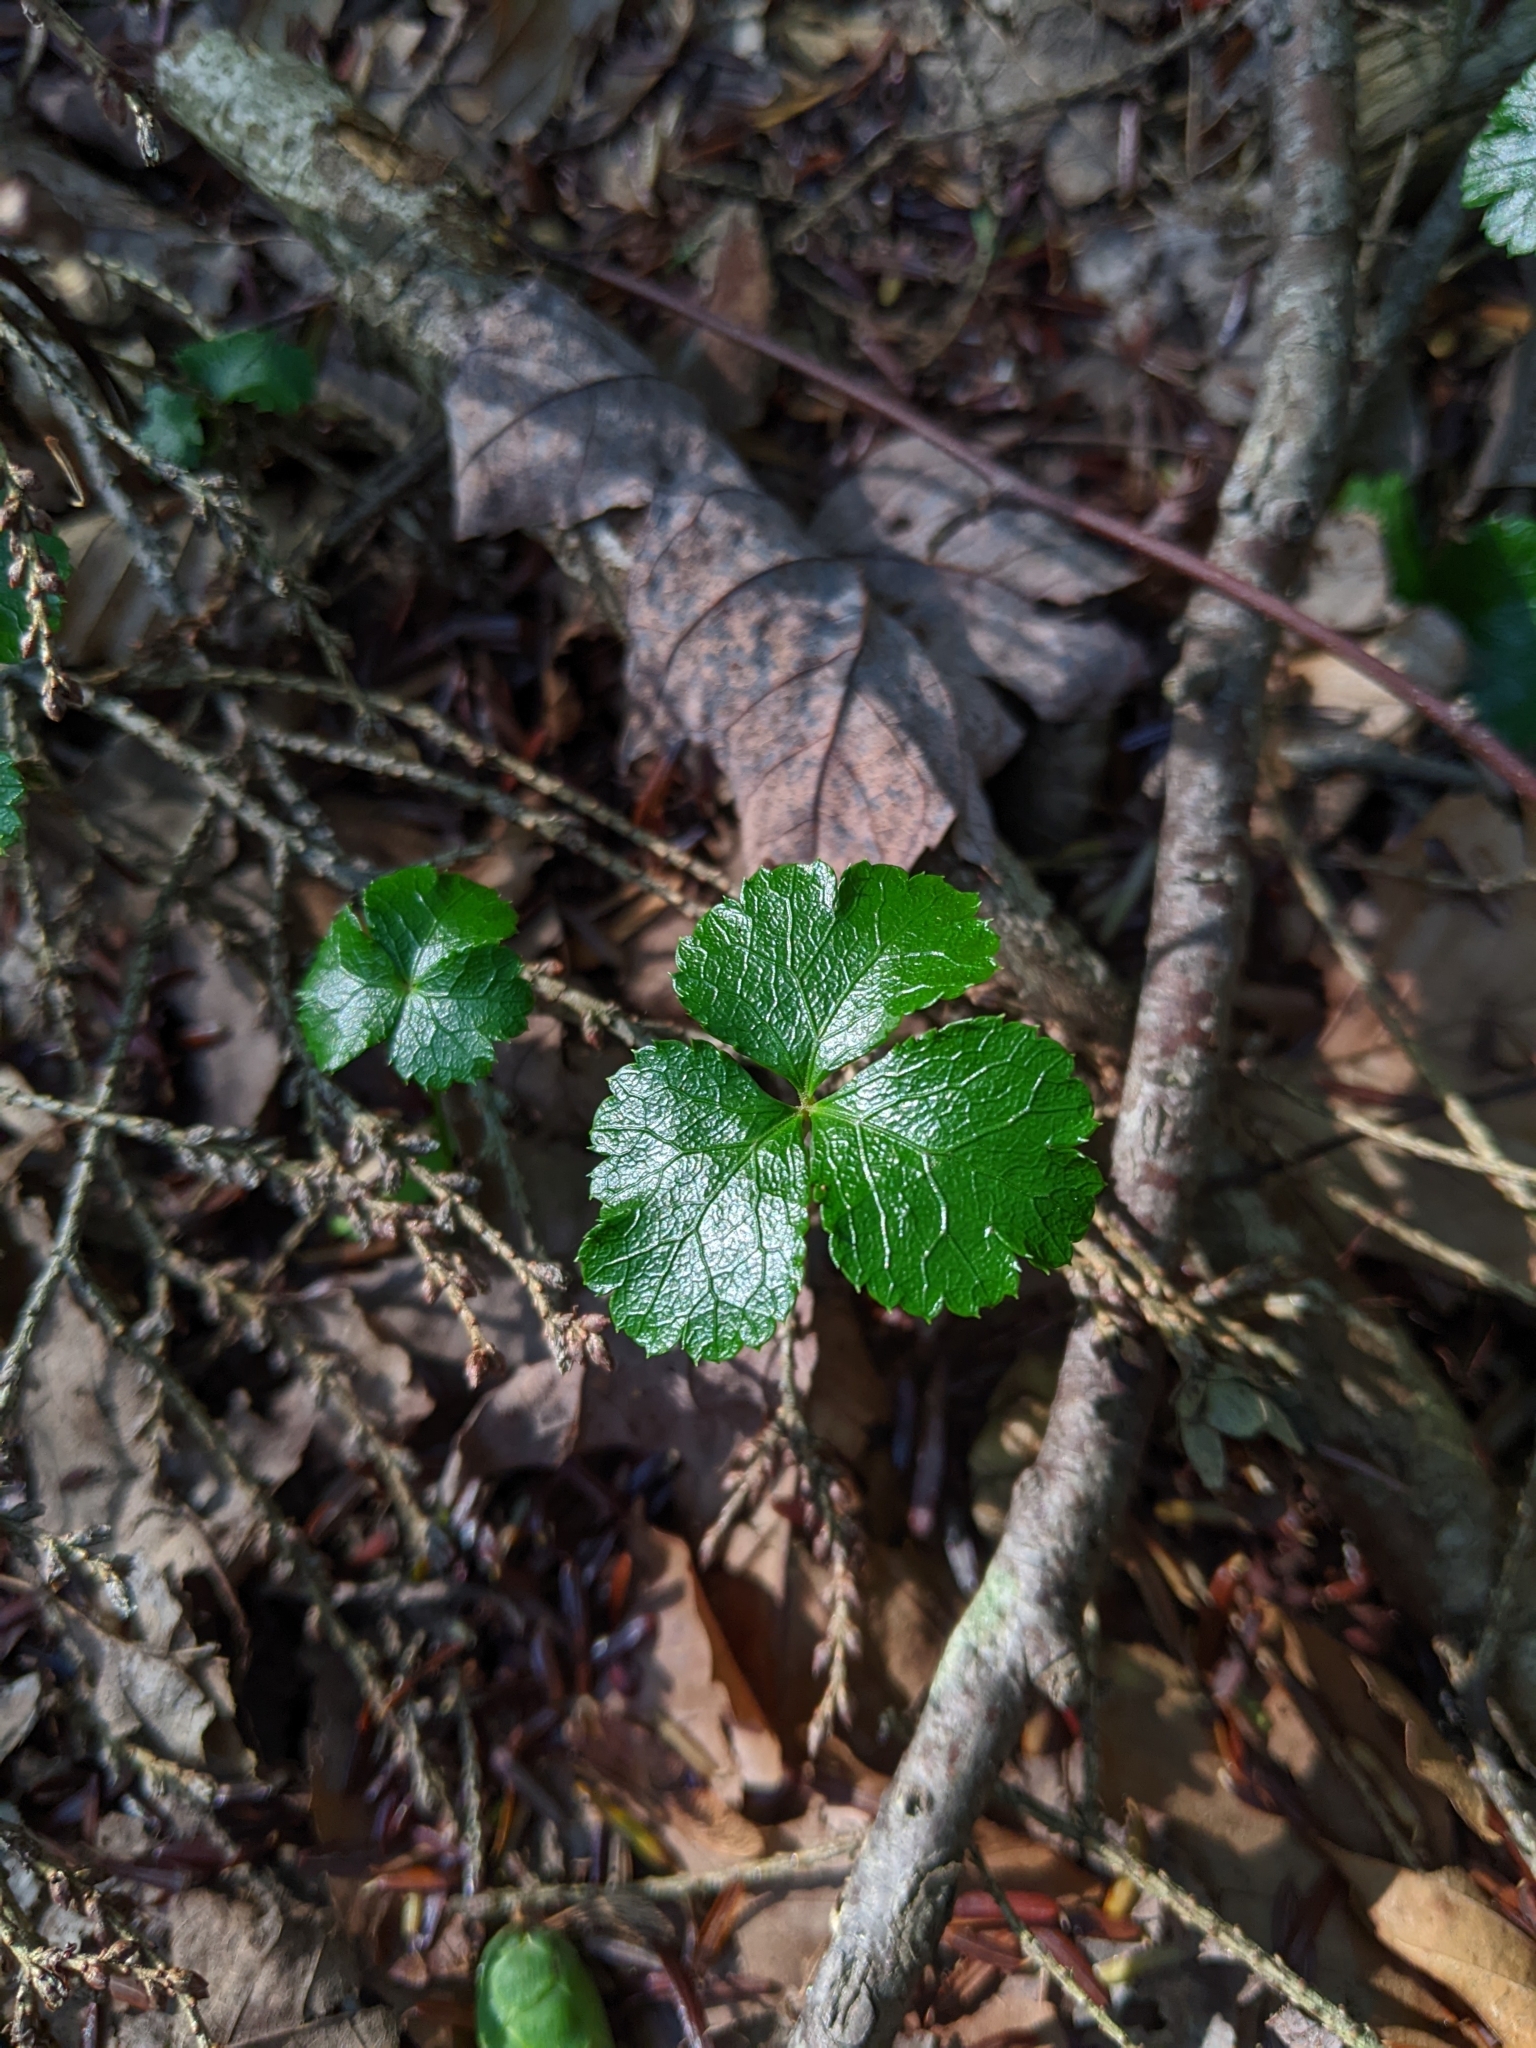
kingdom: Plantae
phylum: Tracheophyta
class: Magnoliopsida
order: Ranunculales
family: Ranunculaceae
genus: Coptis
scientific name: Coptis trifolia
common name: Canker-root
